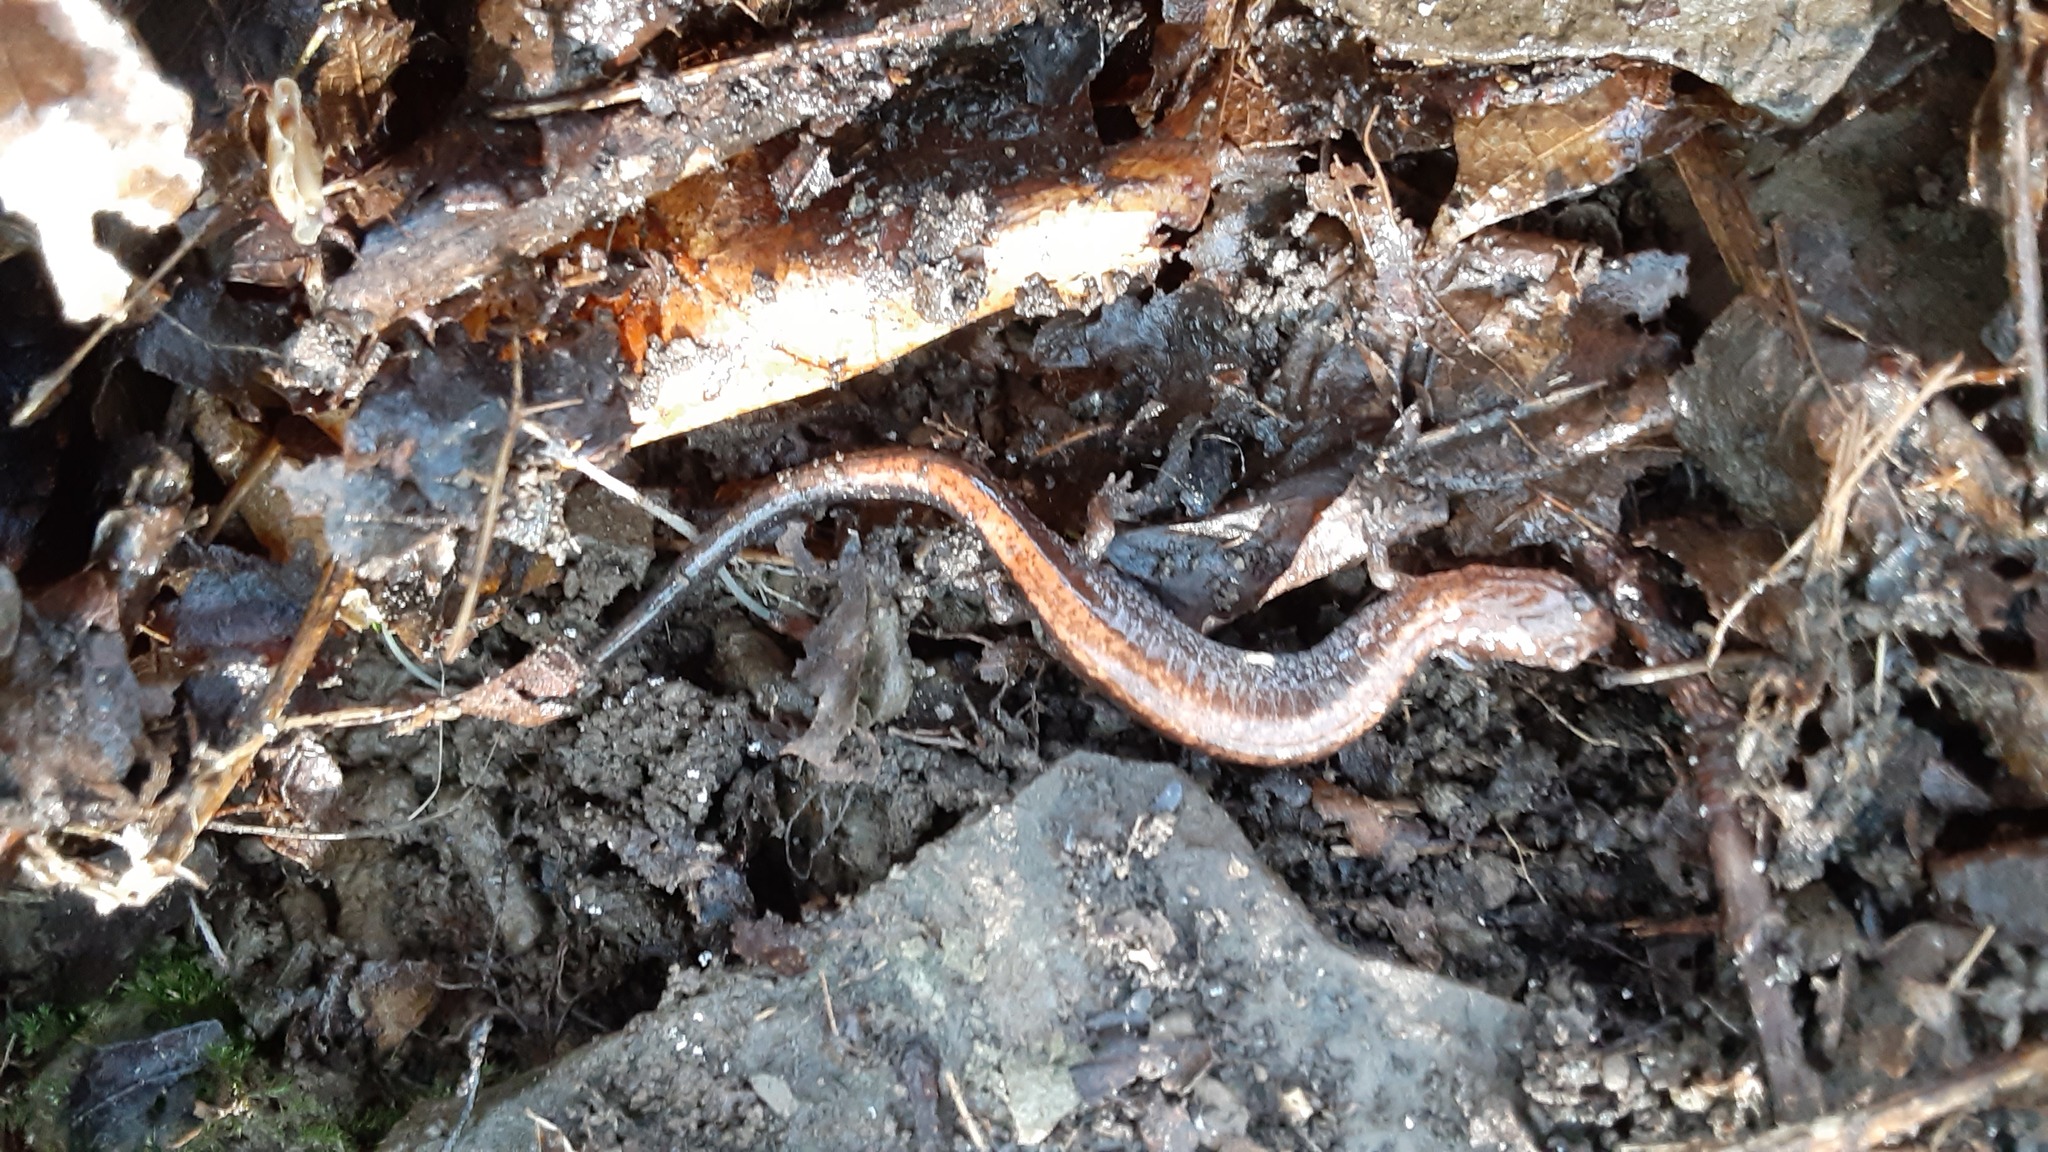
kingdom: Animalia
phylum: Chordata
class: Amphibia
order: Caudata
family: Plethodontidae
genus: Plethodon
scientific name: Plethodon cinereus
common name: Redback salamander
